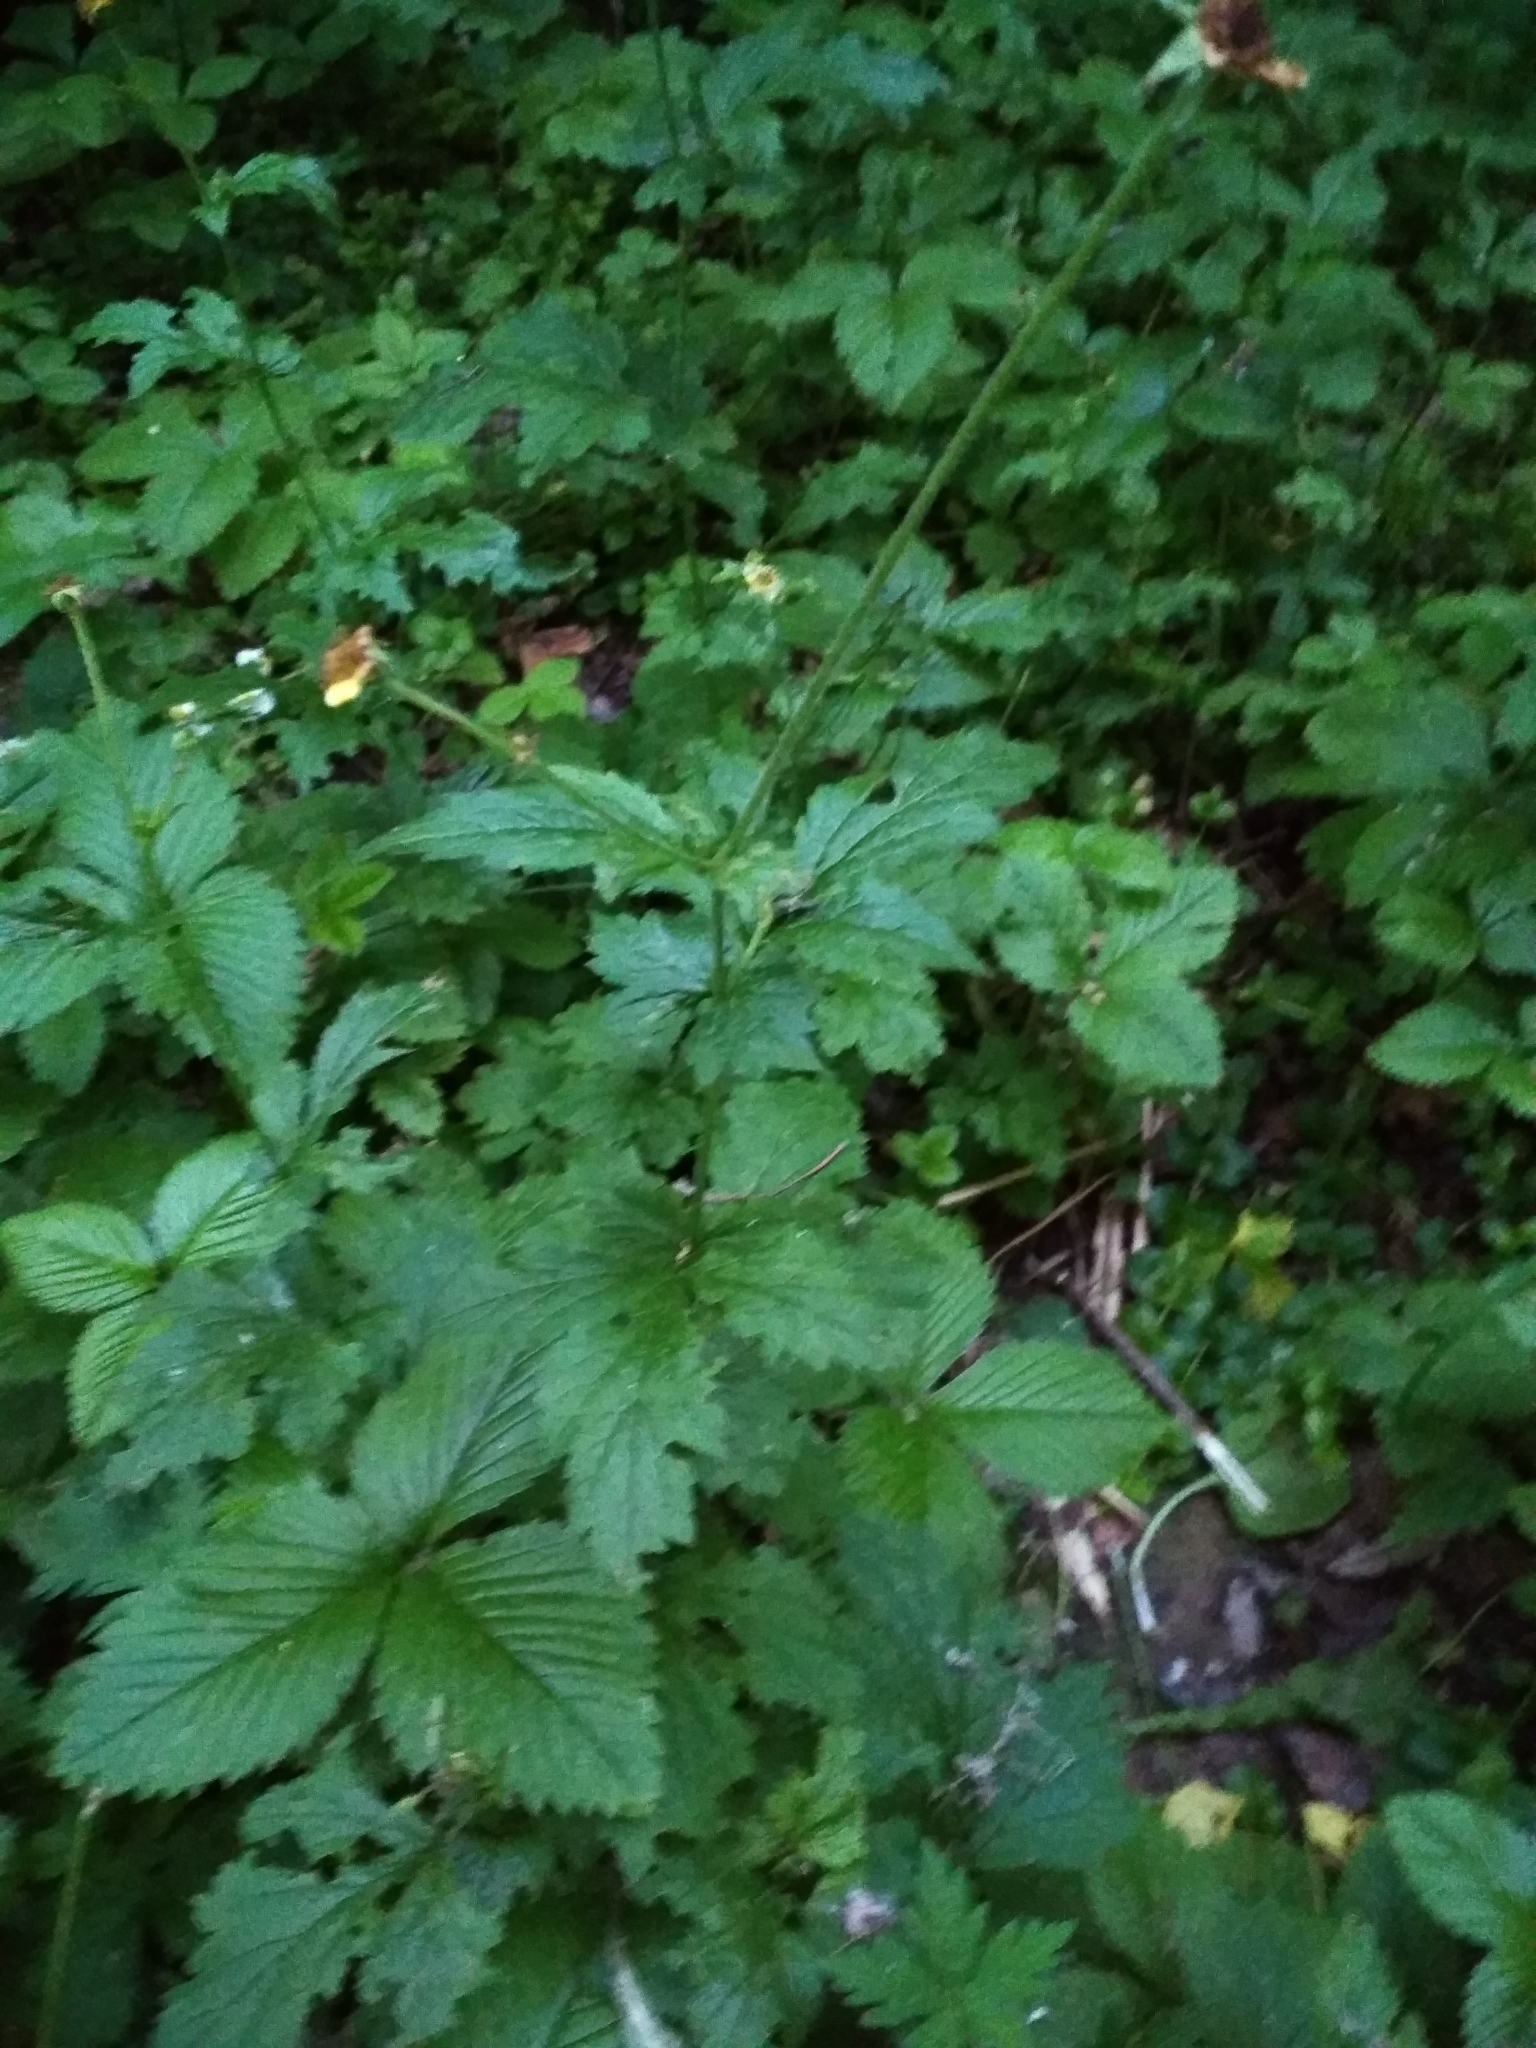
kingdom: Plantae
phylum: Tracheophyta
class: Magnoliopsida
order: Rosales
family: Rosaceae
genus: Geum
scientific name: Geum urbanum
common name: Wood avens
